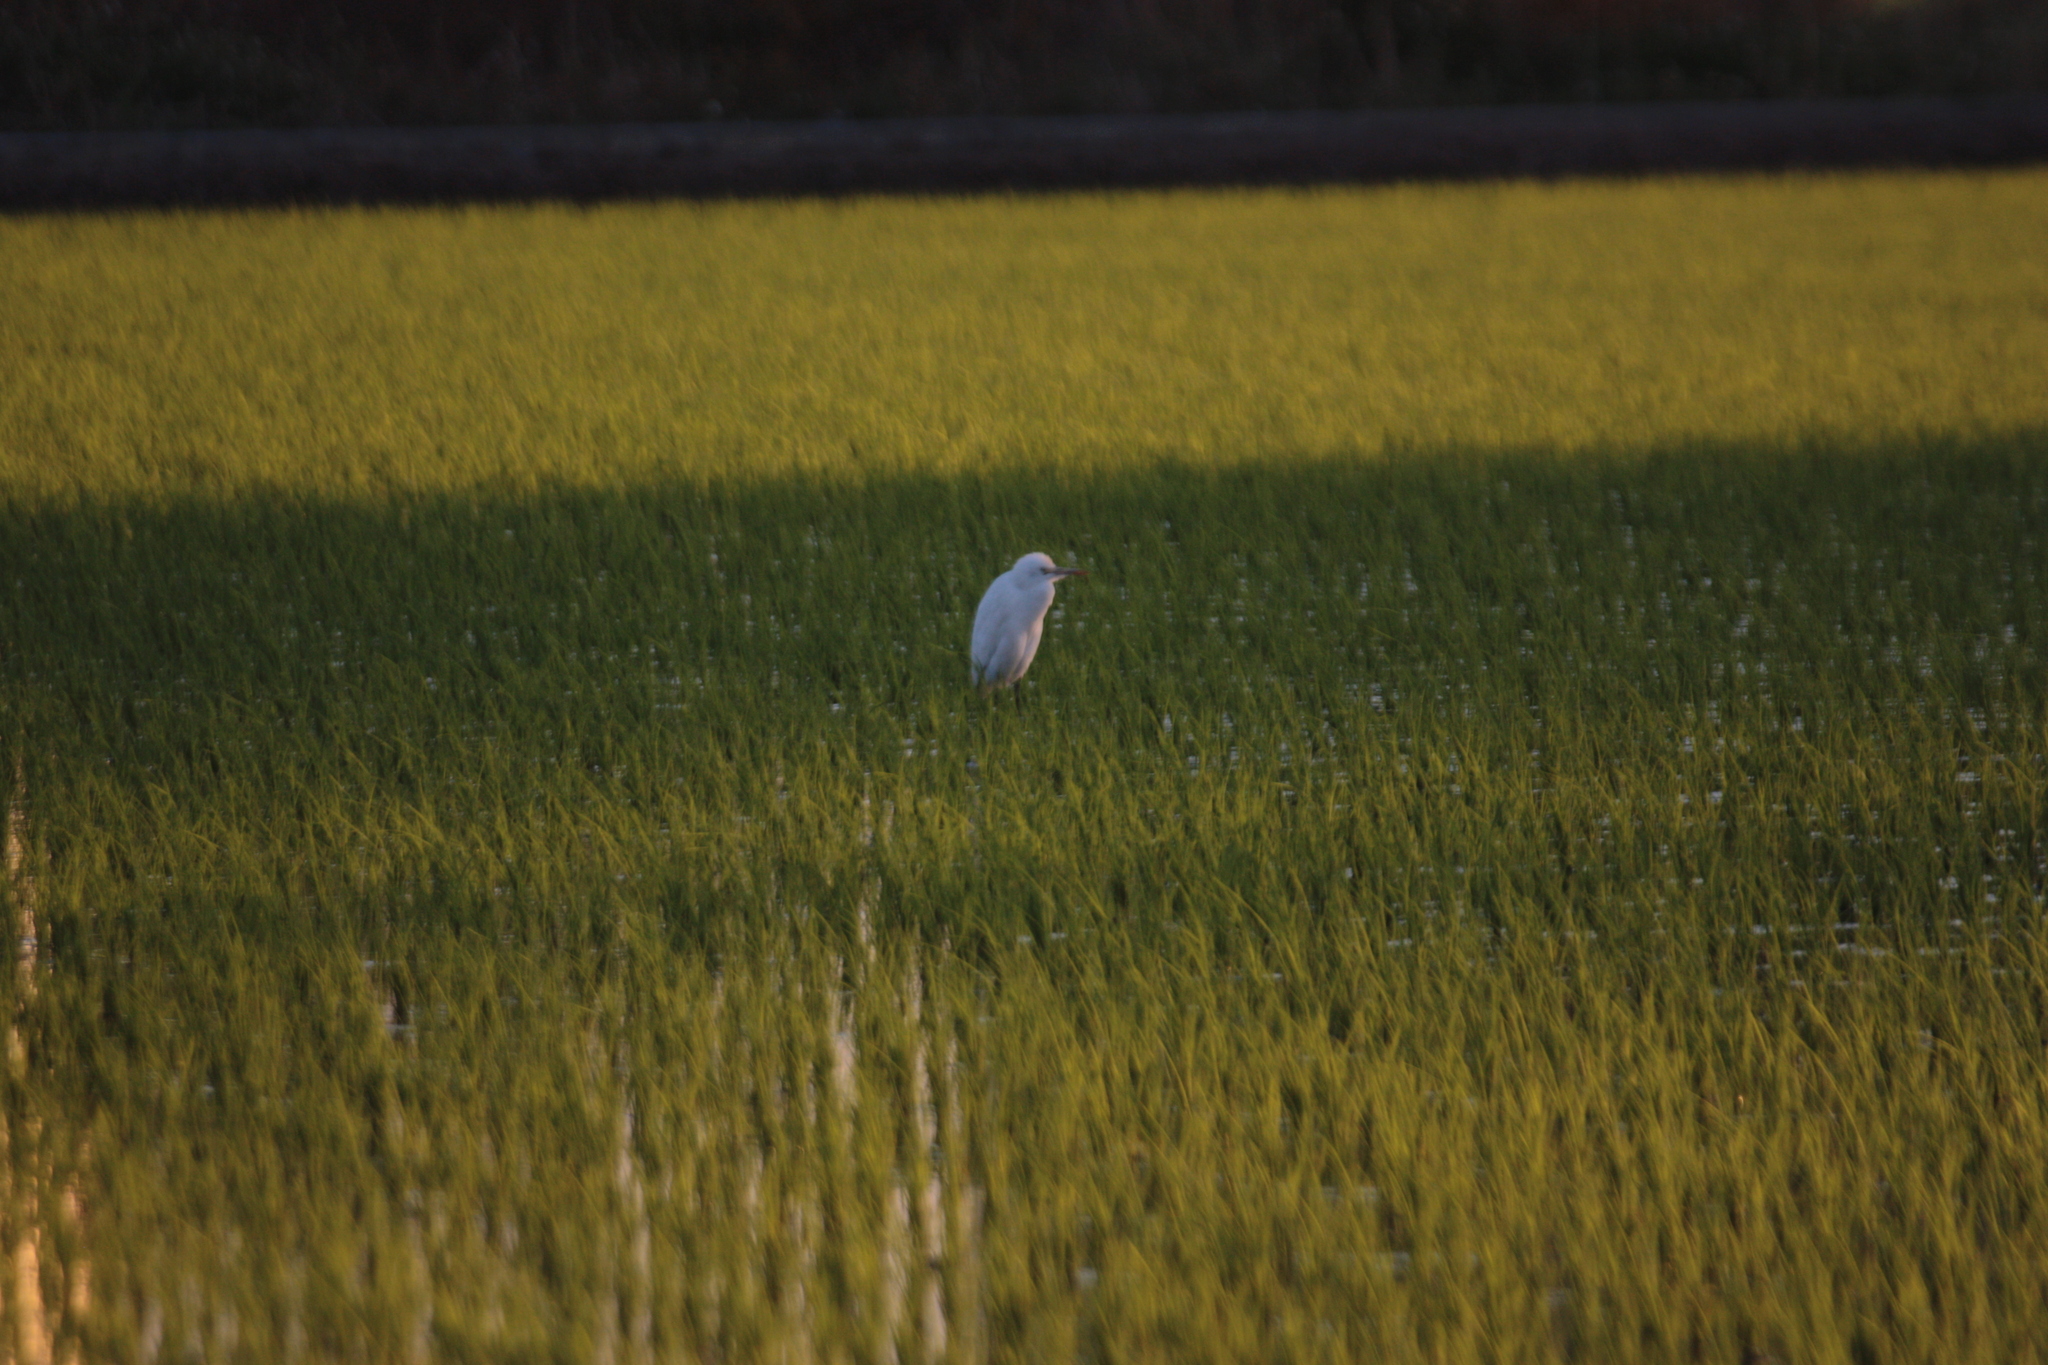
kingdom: Animalia
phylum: Chordata
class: Aves
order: Pelecaniformes
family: Ardeidae
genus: Bubulcus
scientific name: Bubulcus coromandus
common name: Eastern cattle egret
